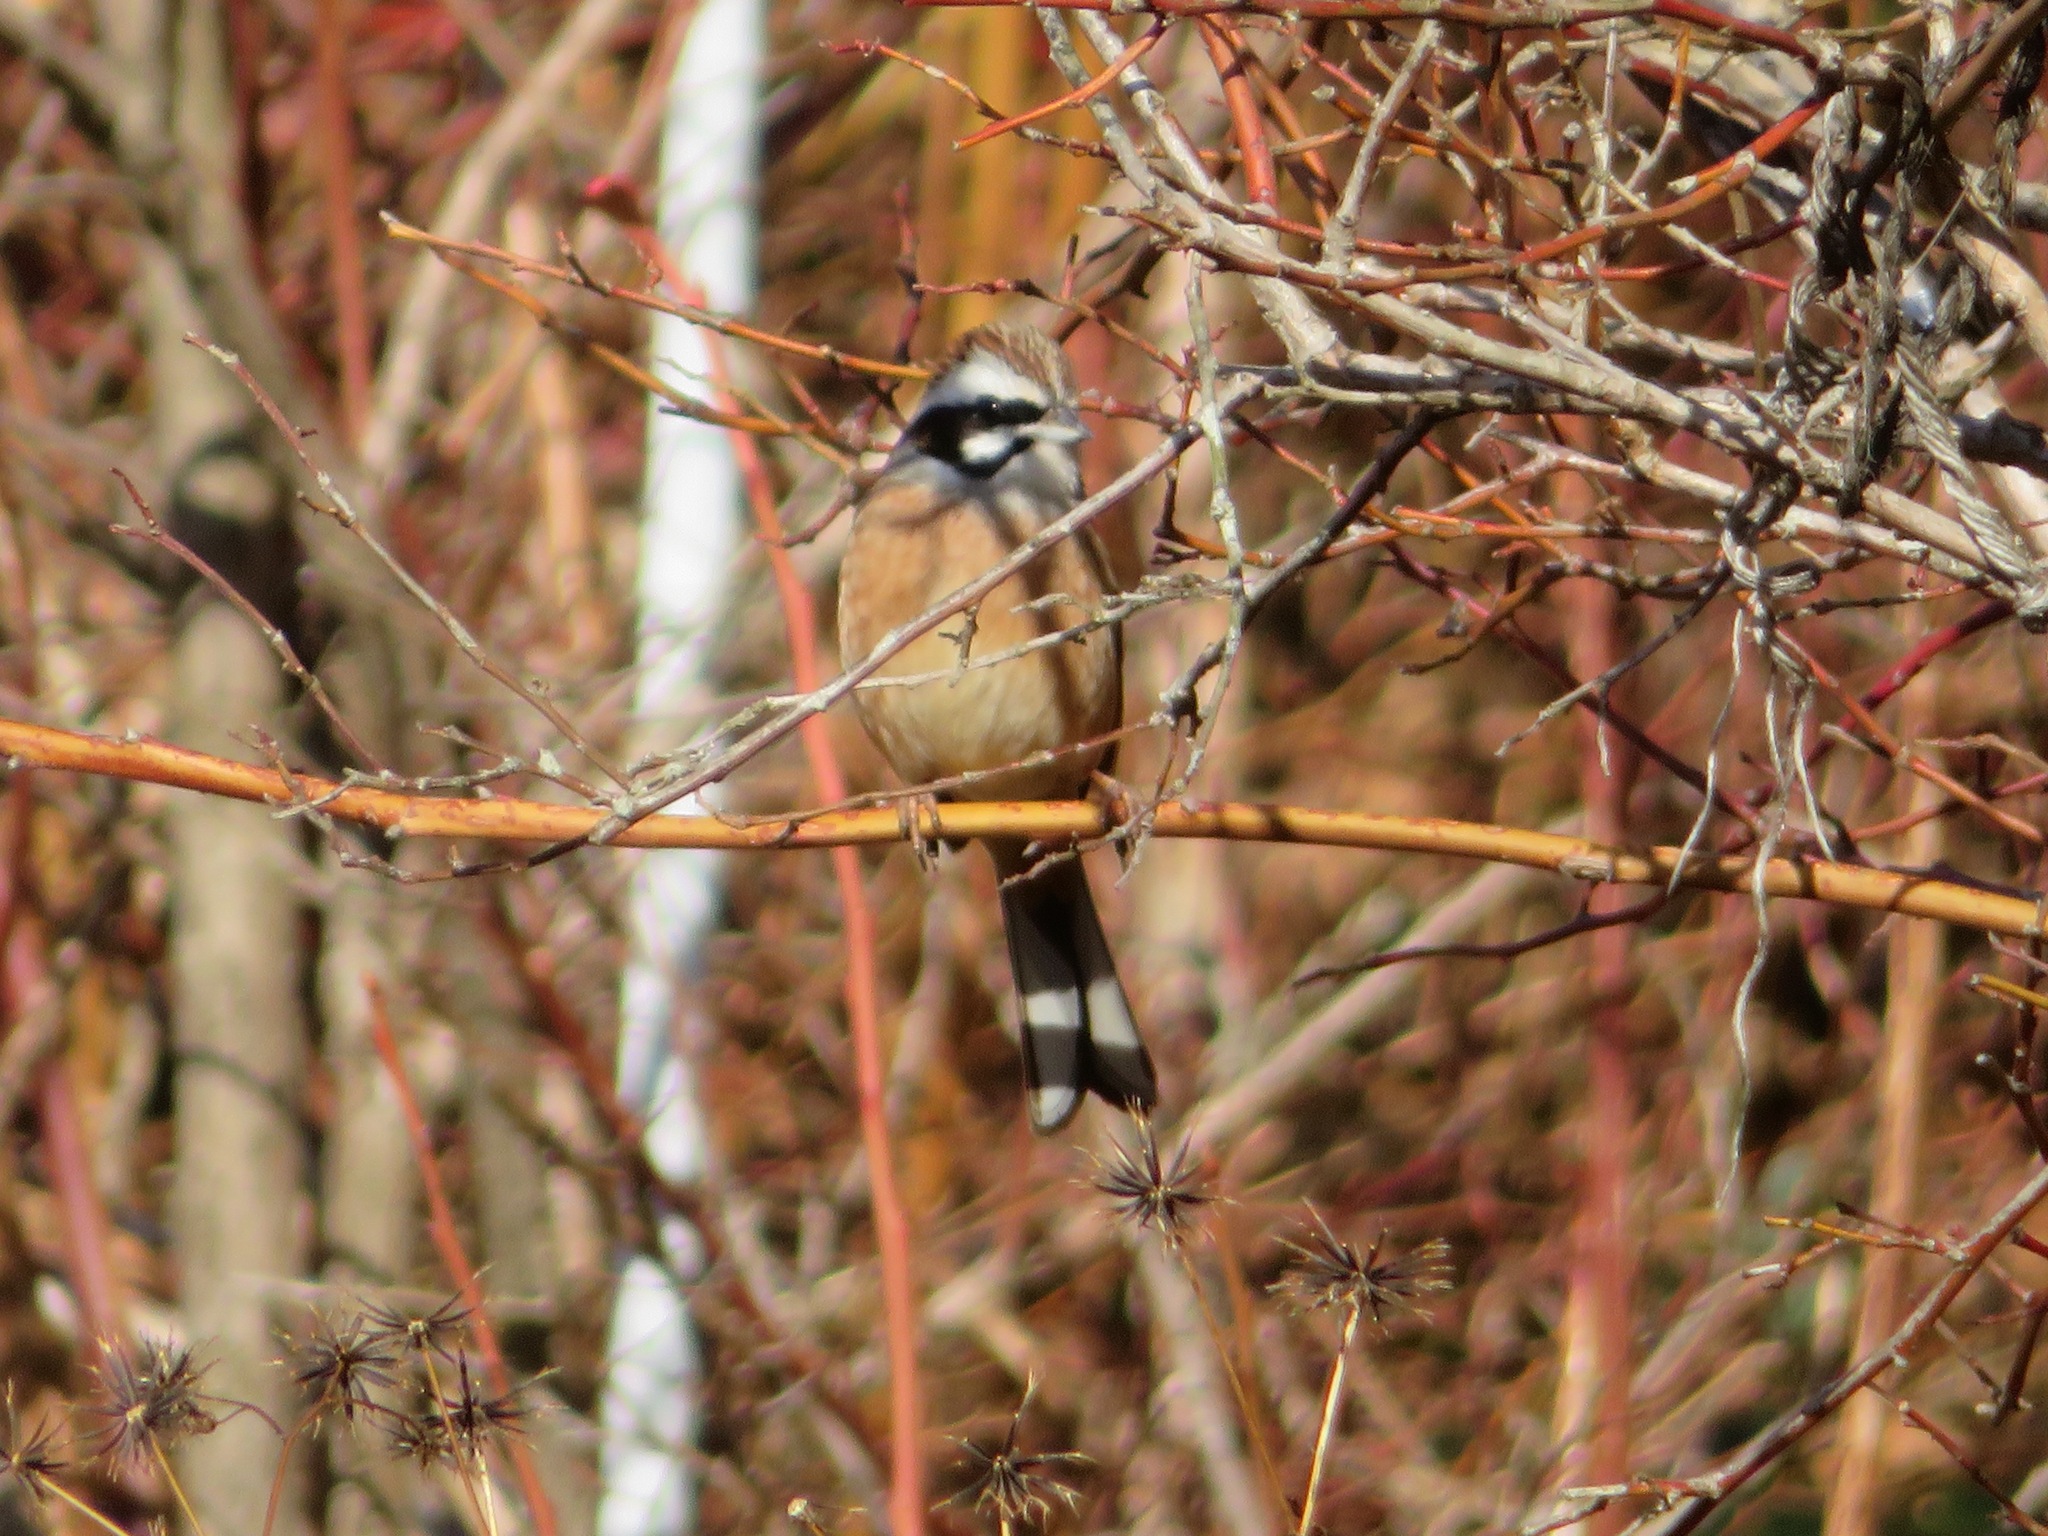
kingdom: Animalia
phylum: Chordata
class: Aves
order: Passeriformes
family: Emberizidae
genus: Emberiza
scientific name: Emberiza cioides
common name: Meadow bunting
